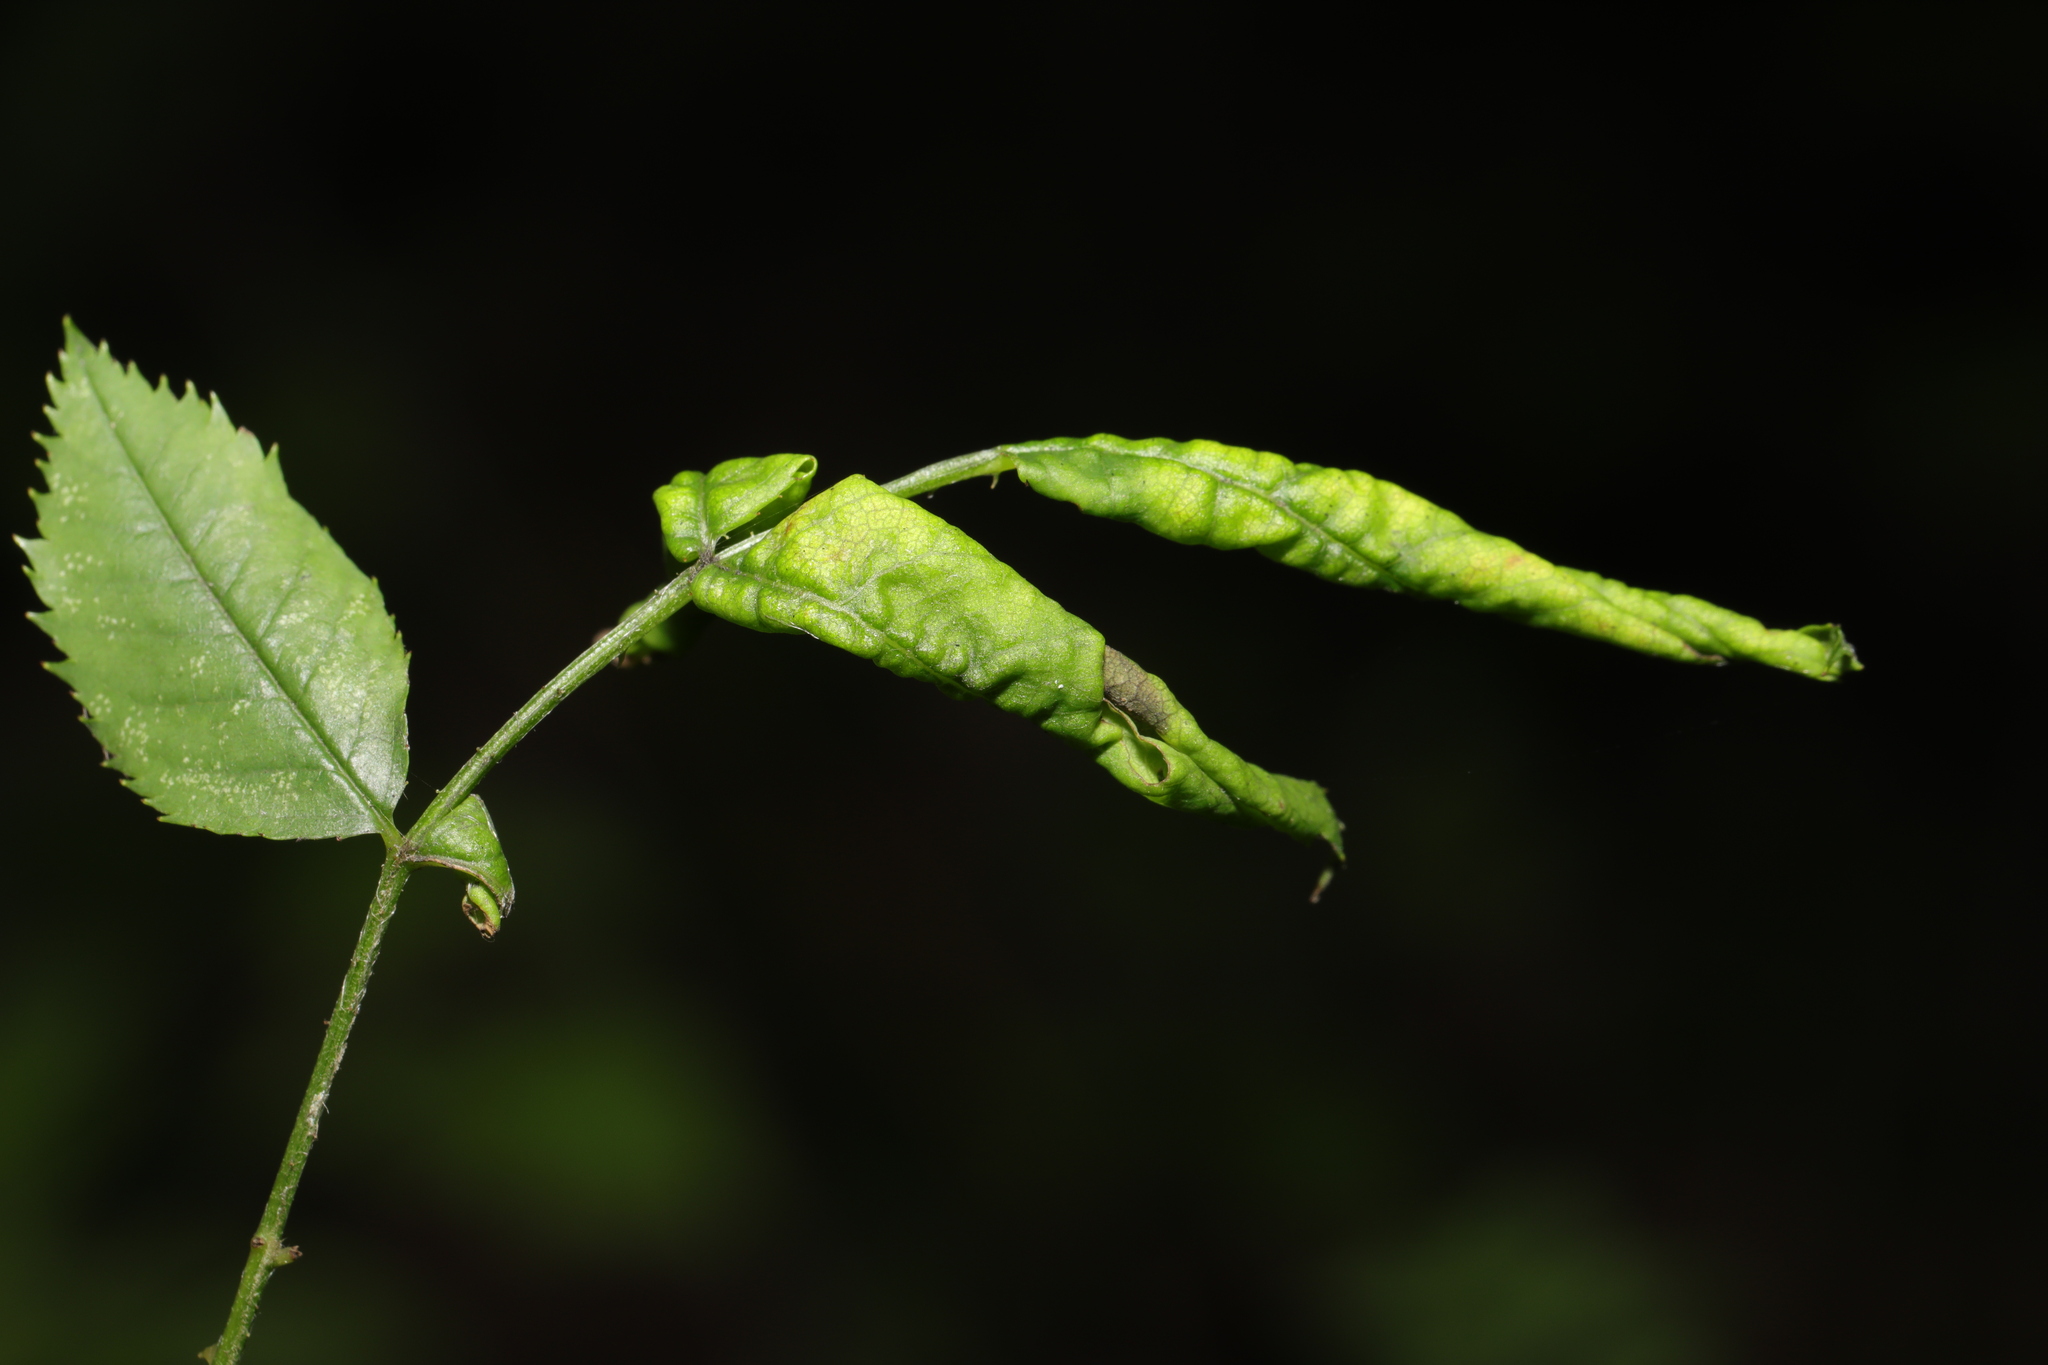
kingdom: Animalia
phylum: Arthropoda
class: Insecta
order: Hymenoptera
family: Tenthredinidae
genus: Blennocampa
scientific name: Blennocampa phyllocolpa
